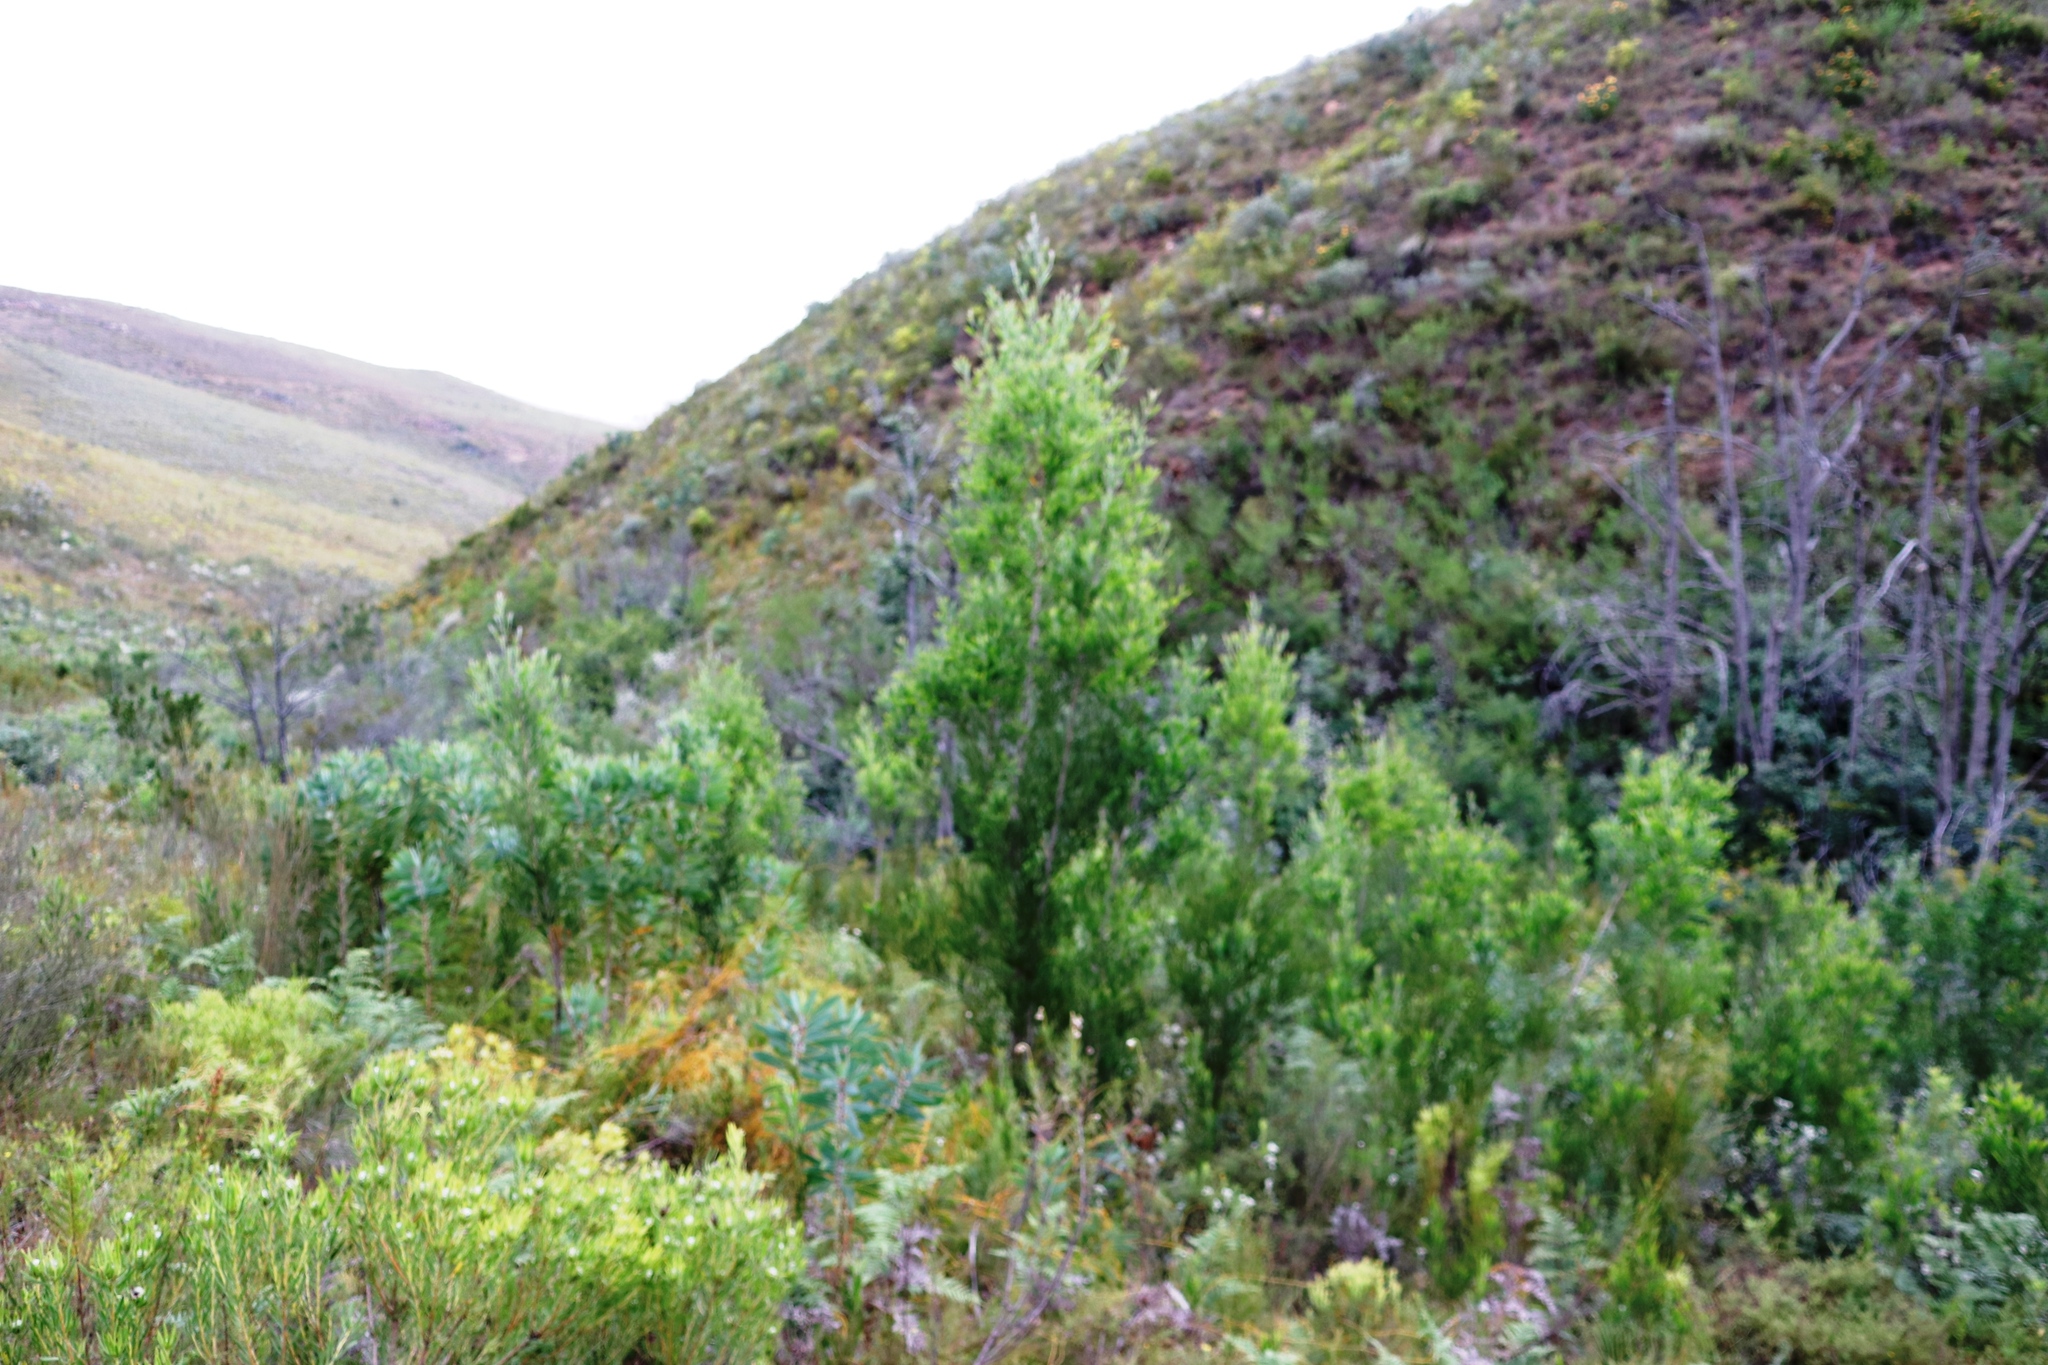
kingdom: Plantae
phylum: Tracheophyta
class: Magnoliopsida
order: Fabales
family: Fabaceae
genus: Acacia
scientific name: Acacia melanoxylon
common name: Blackwood
